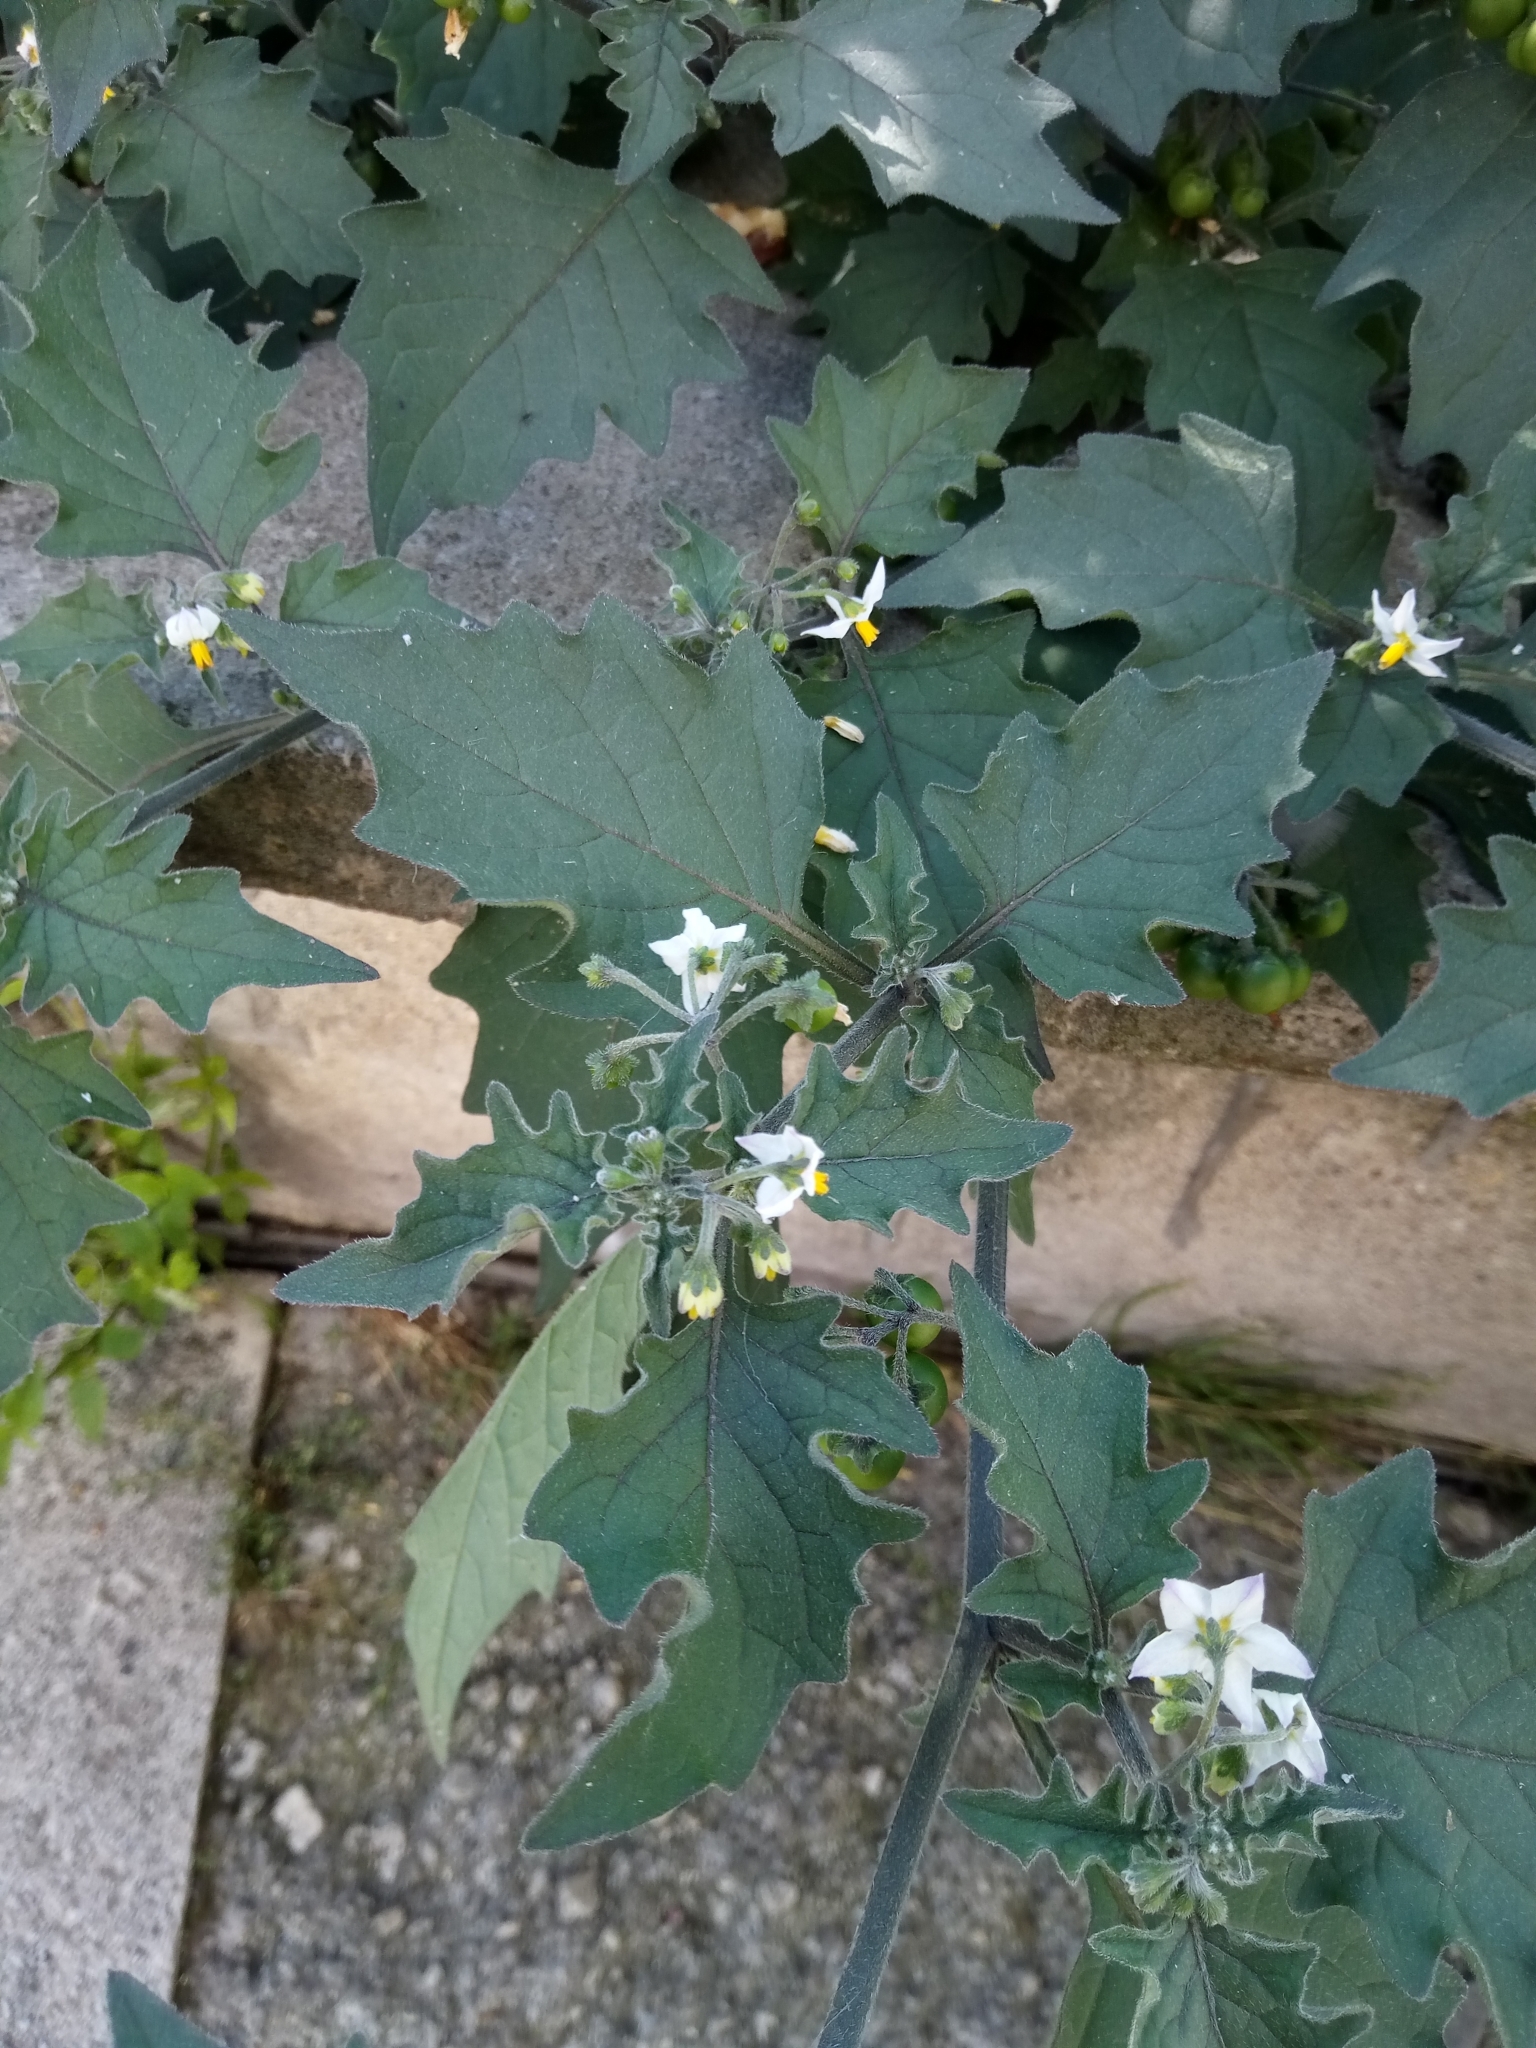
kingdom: Plantae
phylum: Tracheophyta
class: Magnoliopsida
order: Solanales
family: Solanaceae
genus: Solanum
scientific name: Solanum decipiens
